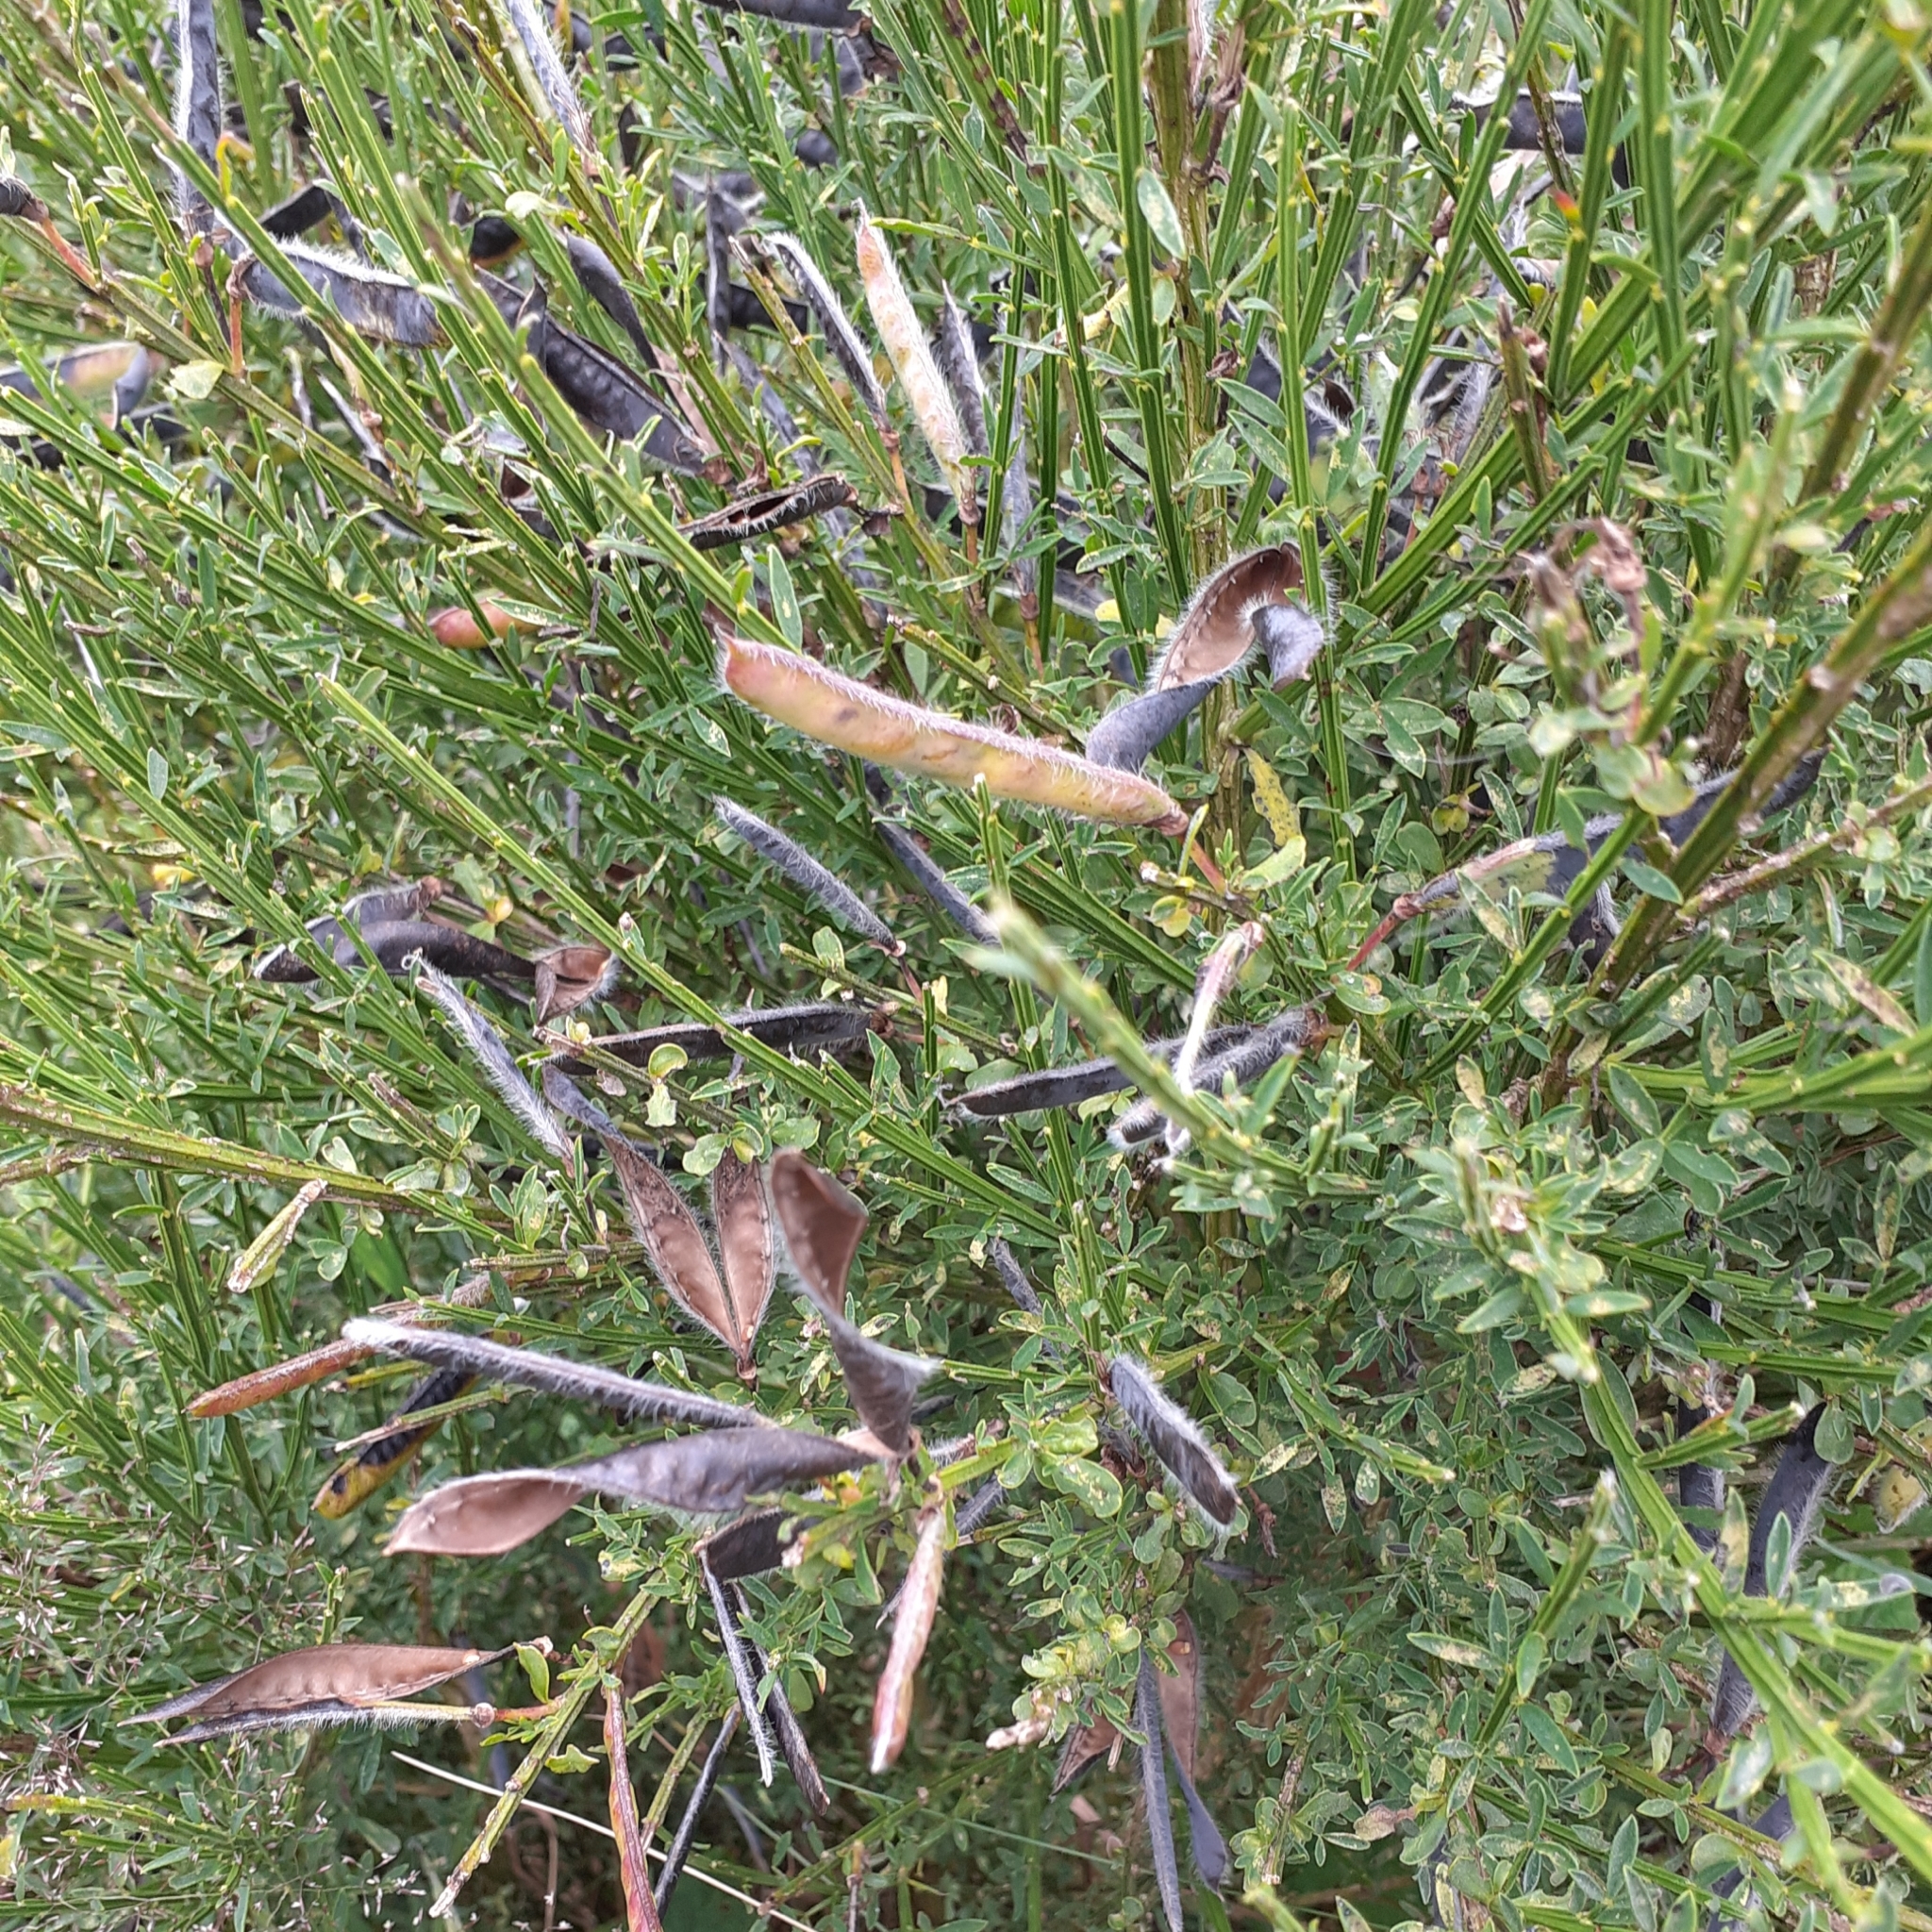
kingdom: Plantae
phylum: Tracheophyta
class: Magnoliopsida
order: Fabales
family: Fabaceae
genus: Cytisus
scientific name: Cytisus scoparius
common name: Scotch broom
